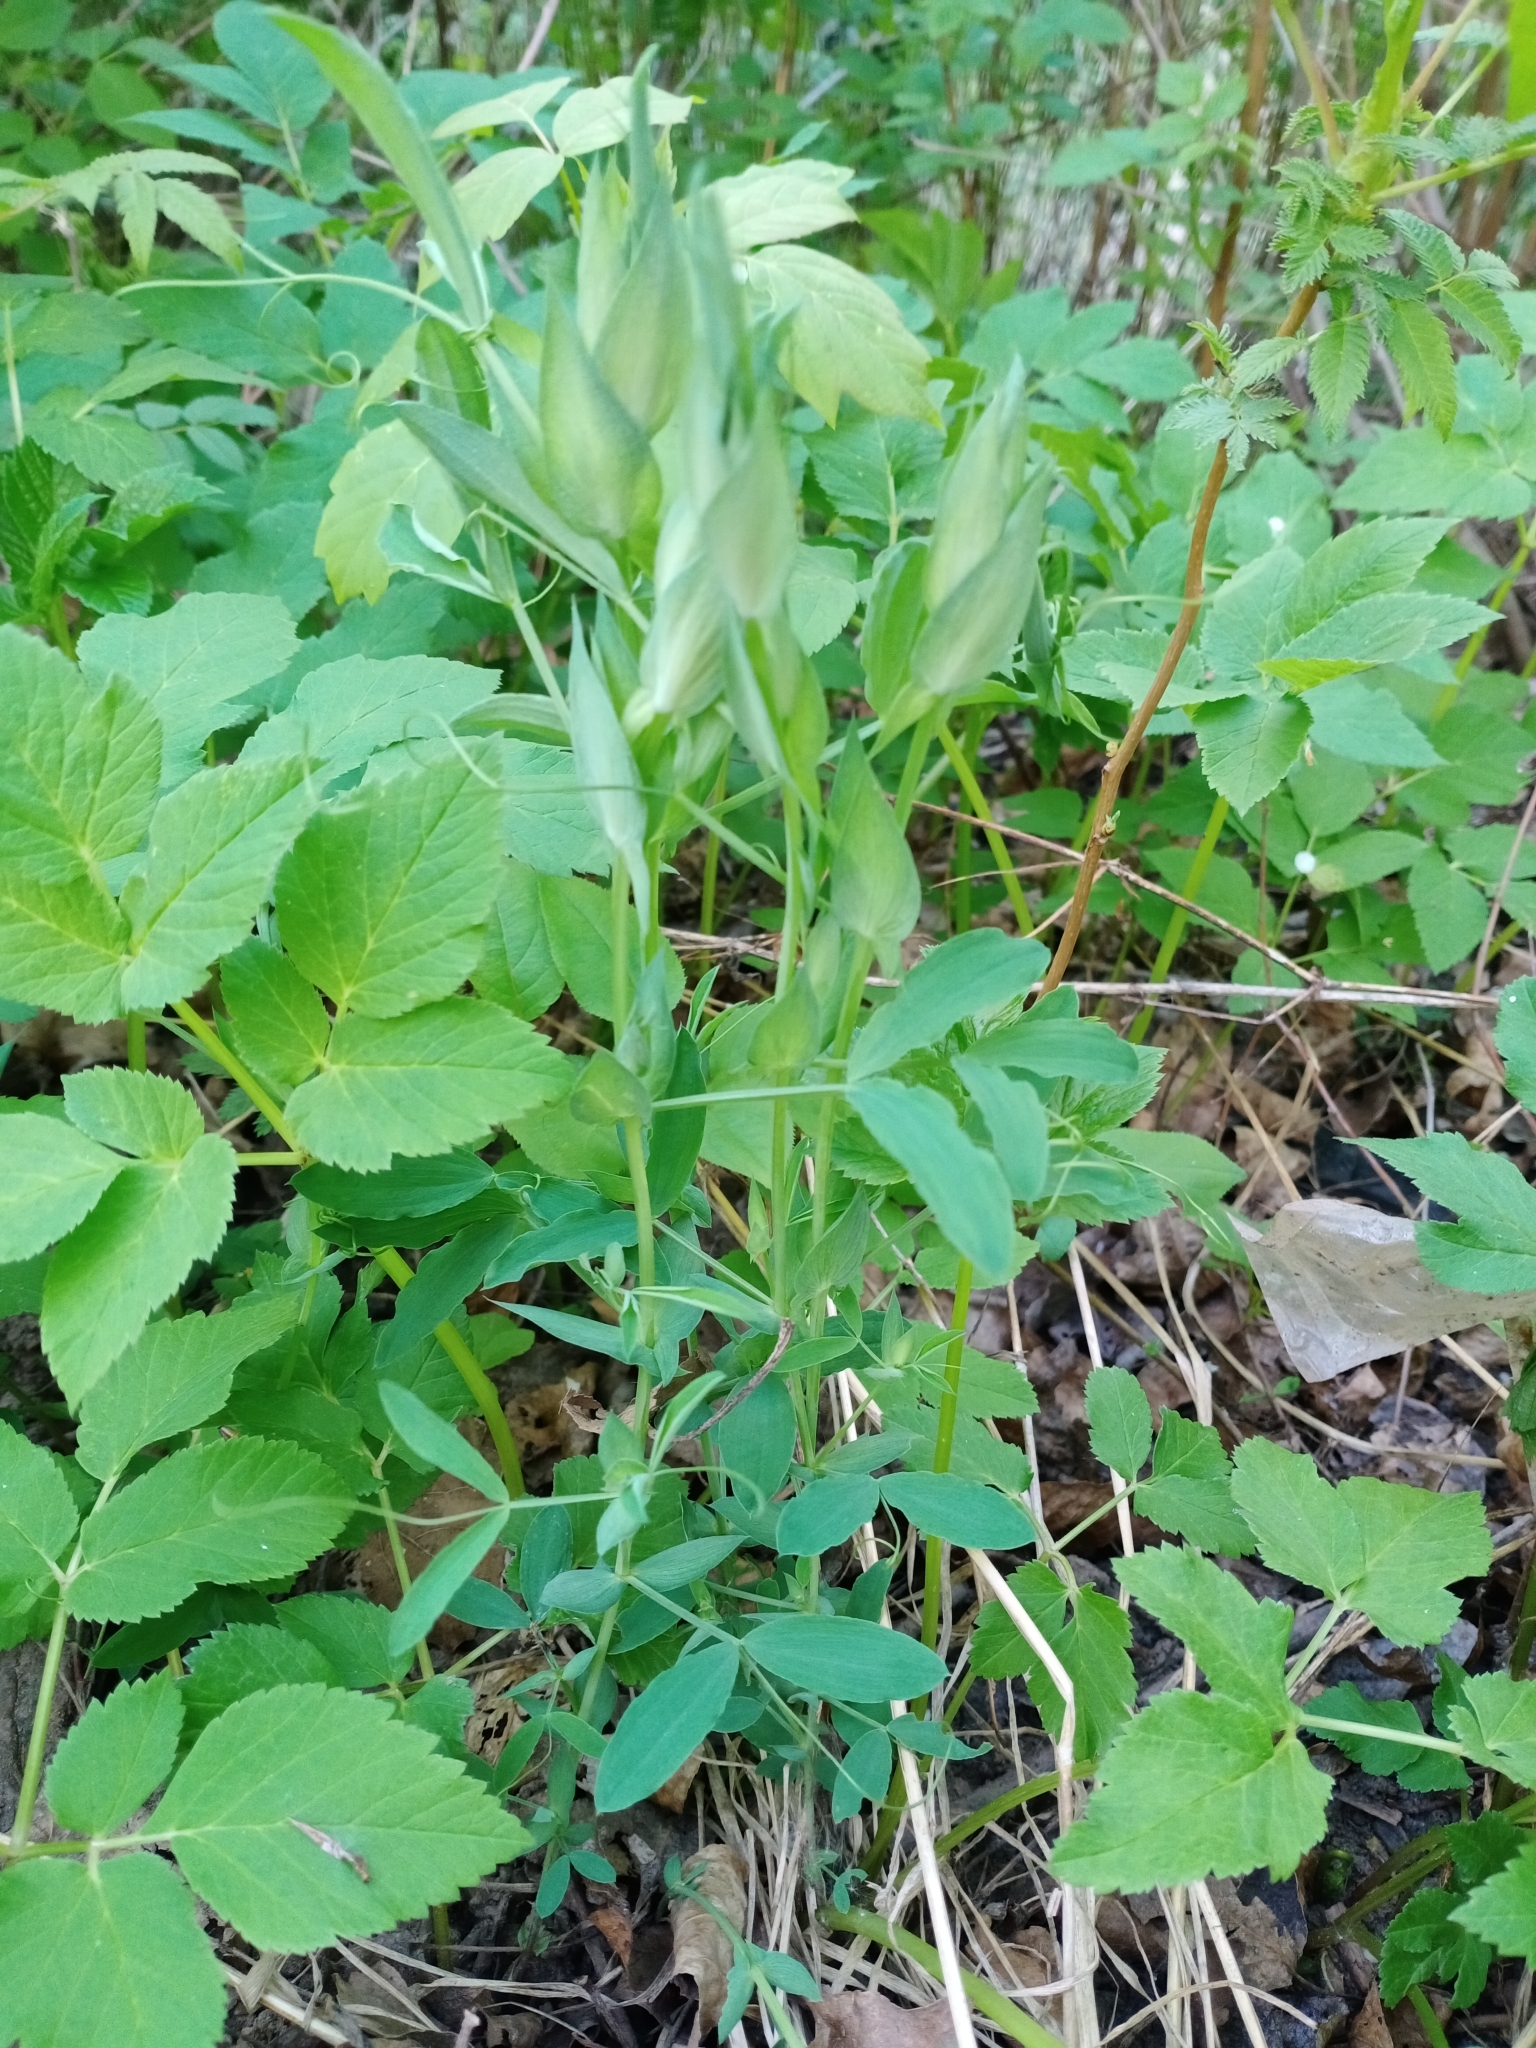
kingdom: Plantae
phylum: Tracheophyta
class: Magnoliopsida
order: Fabales
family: Fabaceae
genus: Lathyrus
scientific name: Lathyrus pratensis
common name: Meadow vetchling
